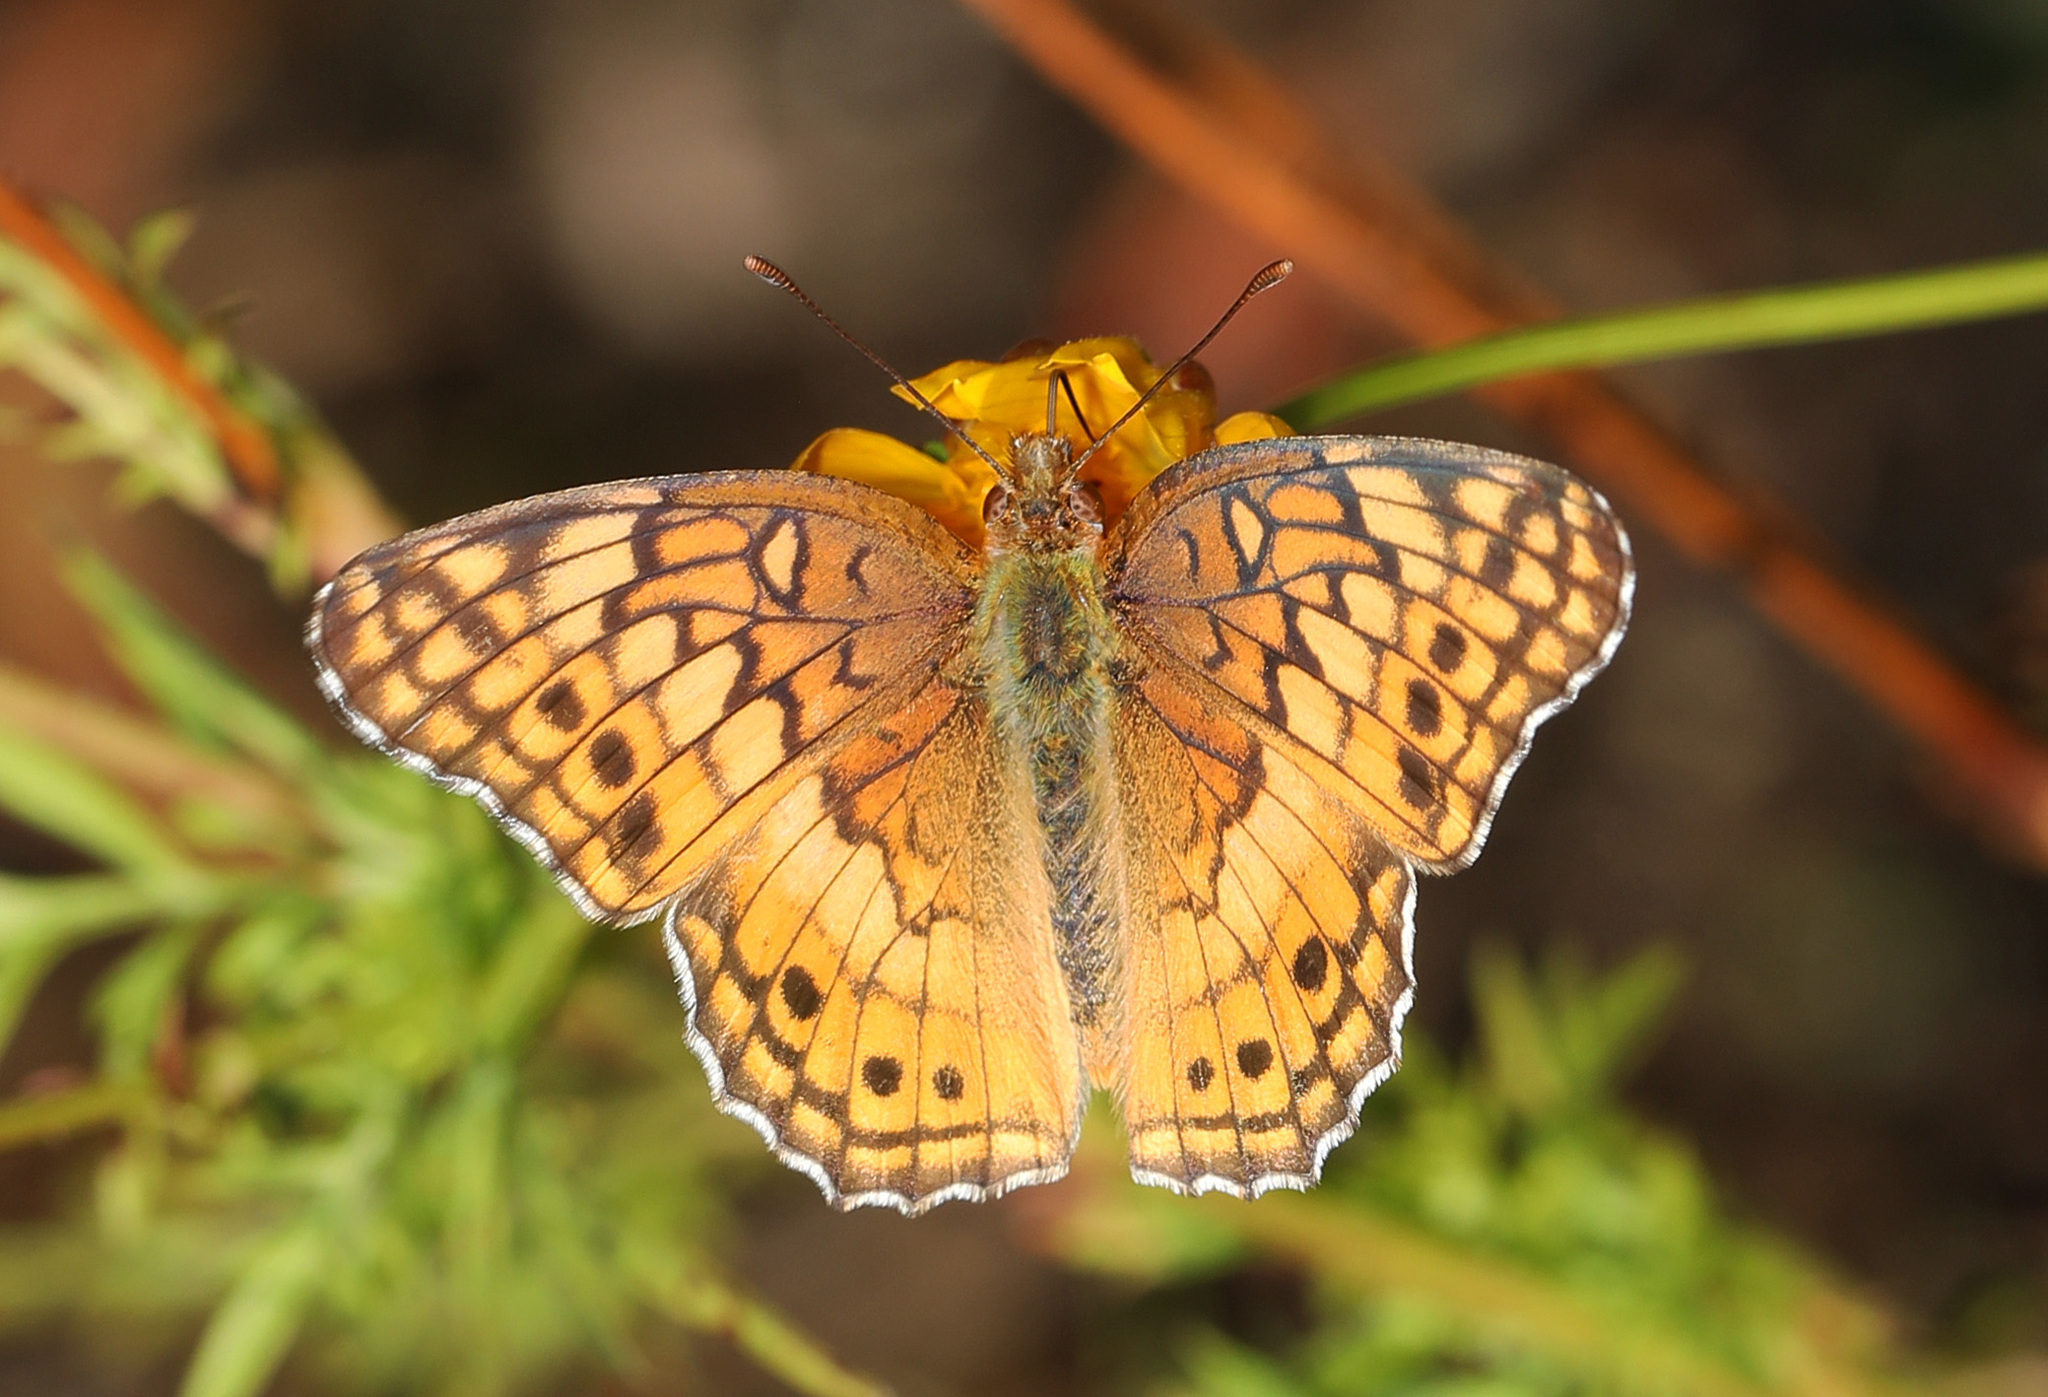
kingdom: Animalia
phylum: Arthropoda
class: Insecta
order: Lepidoptera
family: Nymphalidae
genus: Euptoieta
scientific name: Euptoieta claudia
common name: Variegated fritillary
